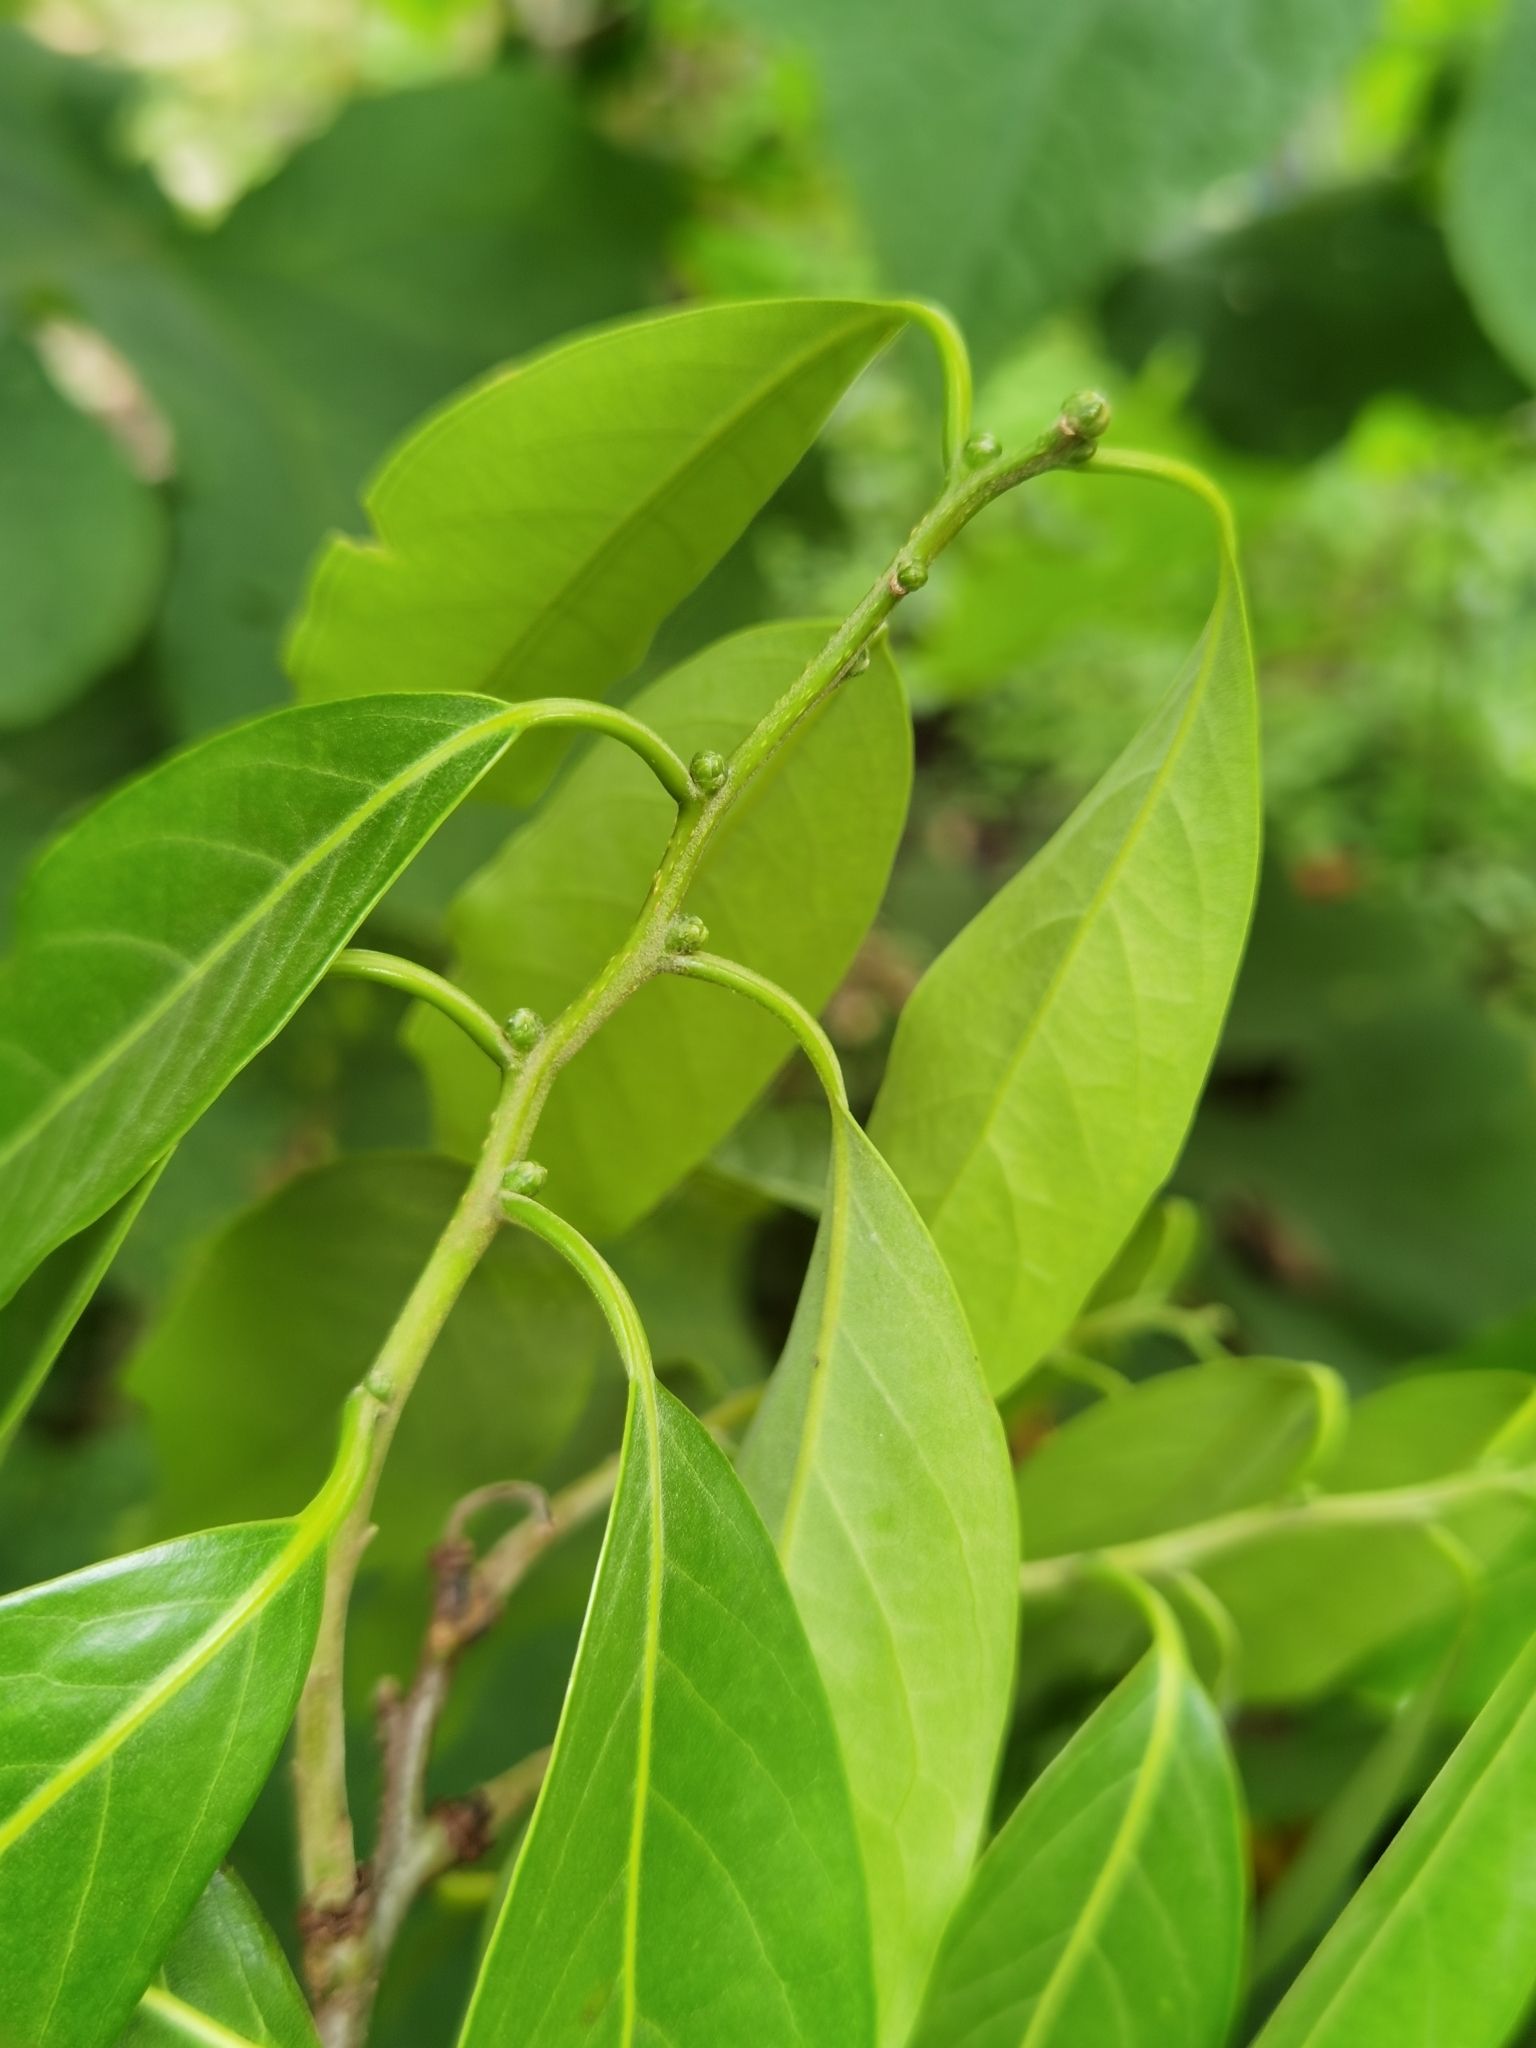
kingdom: Plantae
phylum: Tracheophyta
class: Magnoliopsida
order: Laurales
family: Lauraceae
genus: Licaria
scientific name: Licaria triandra
